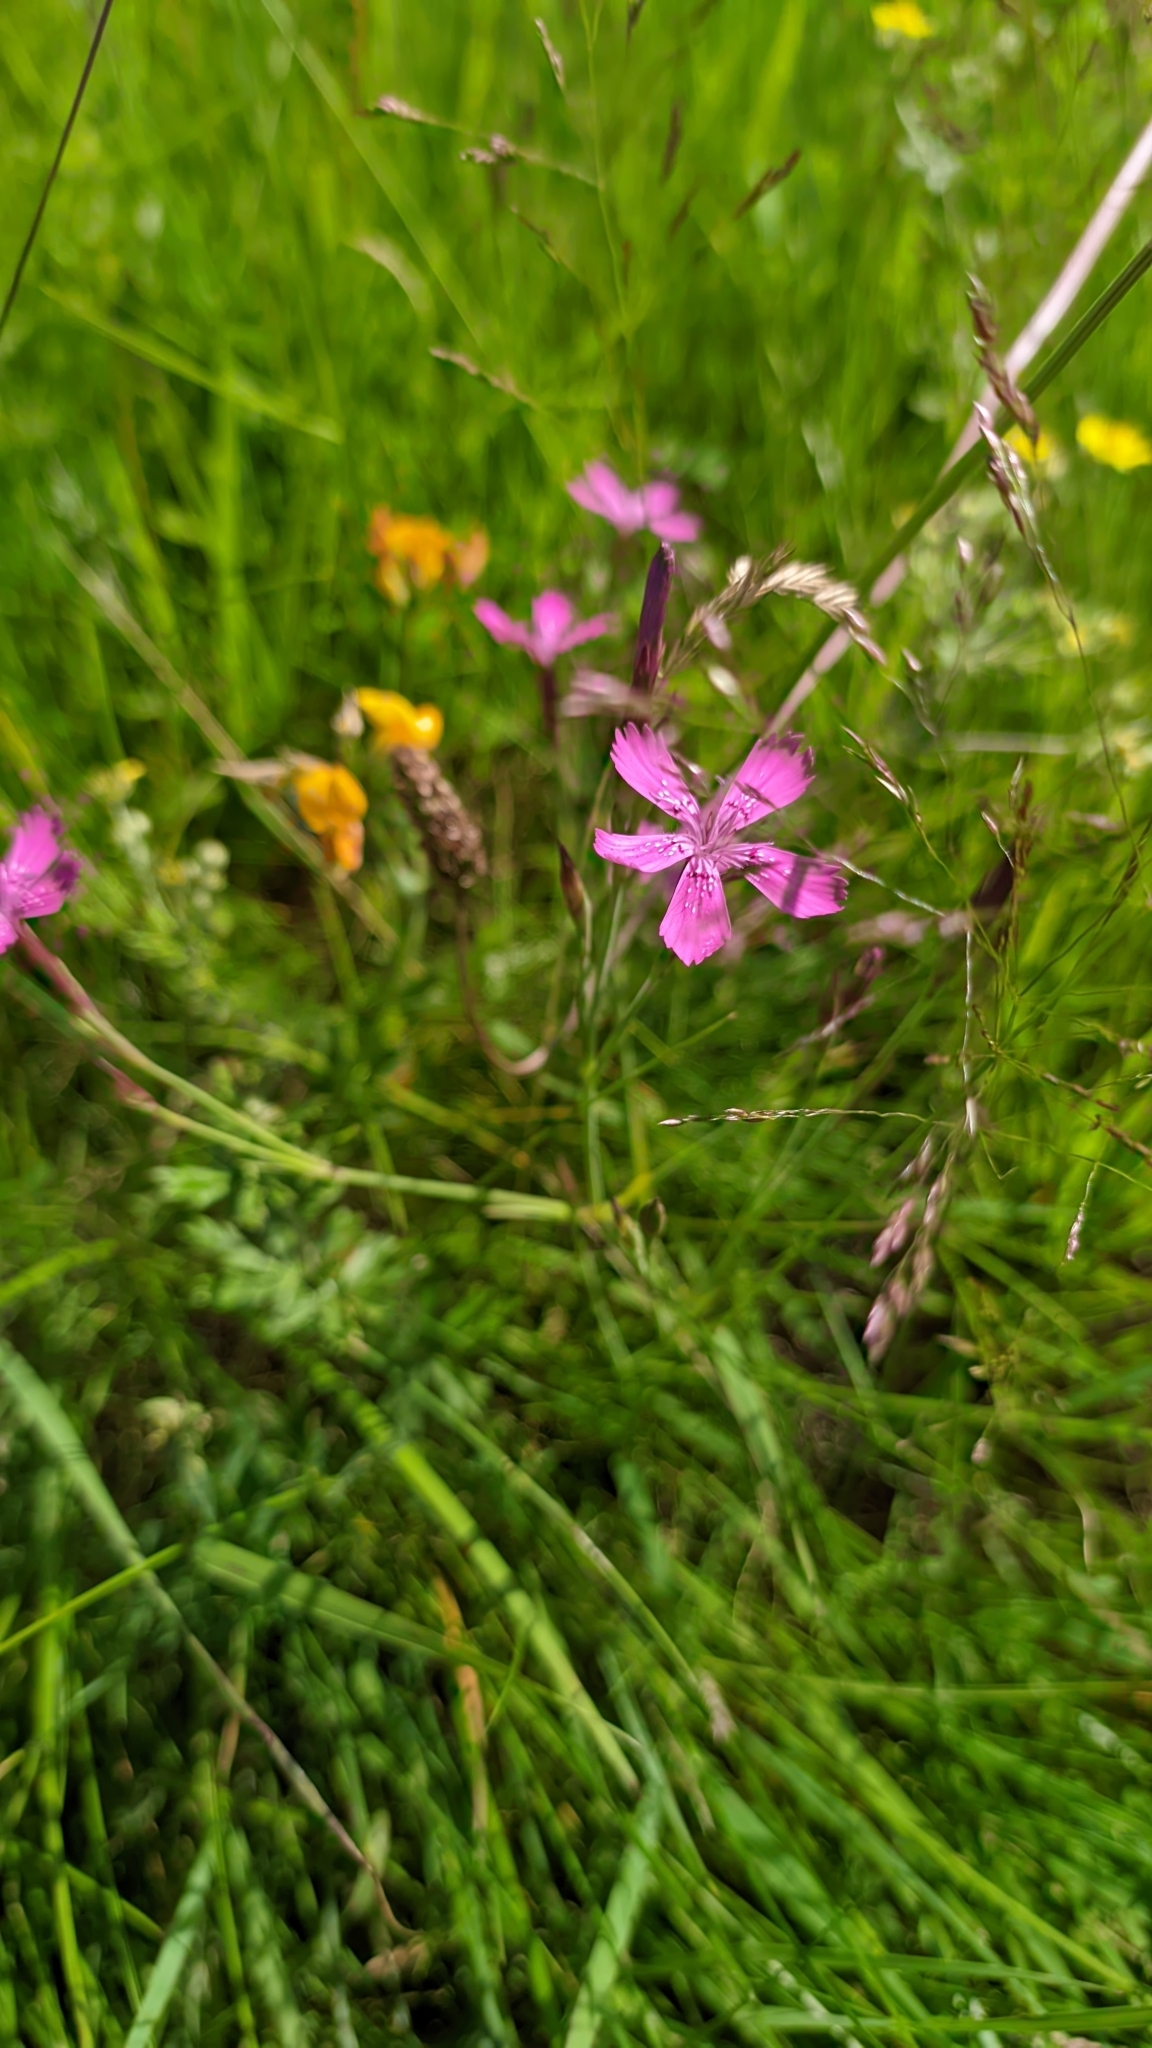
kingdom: Plantae
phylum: Tracheophyta
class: Magnoliopsida
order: Caryophyllales
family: Caryophyllaceae
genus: Dianthus
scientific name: Dianthus deltoides
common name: Maiden pink
